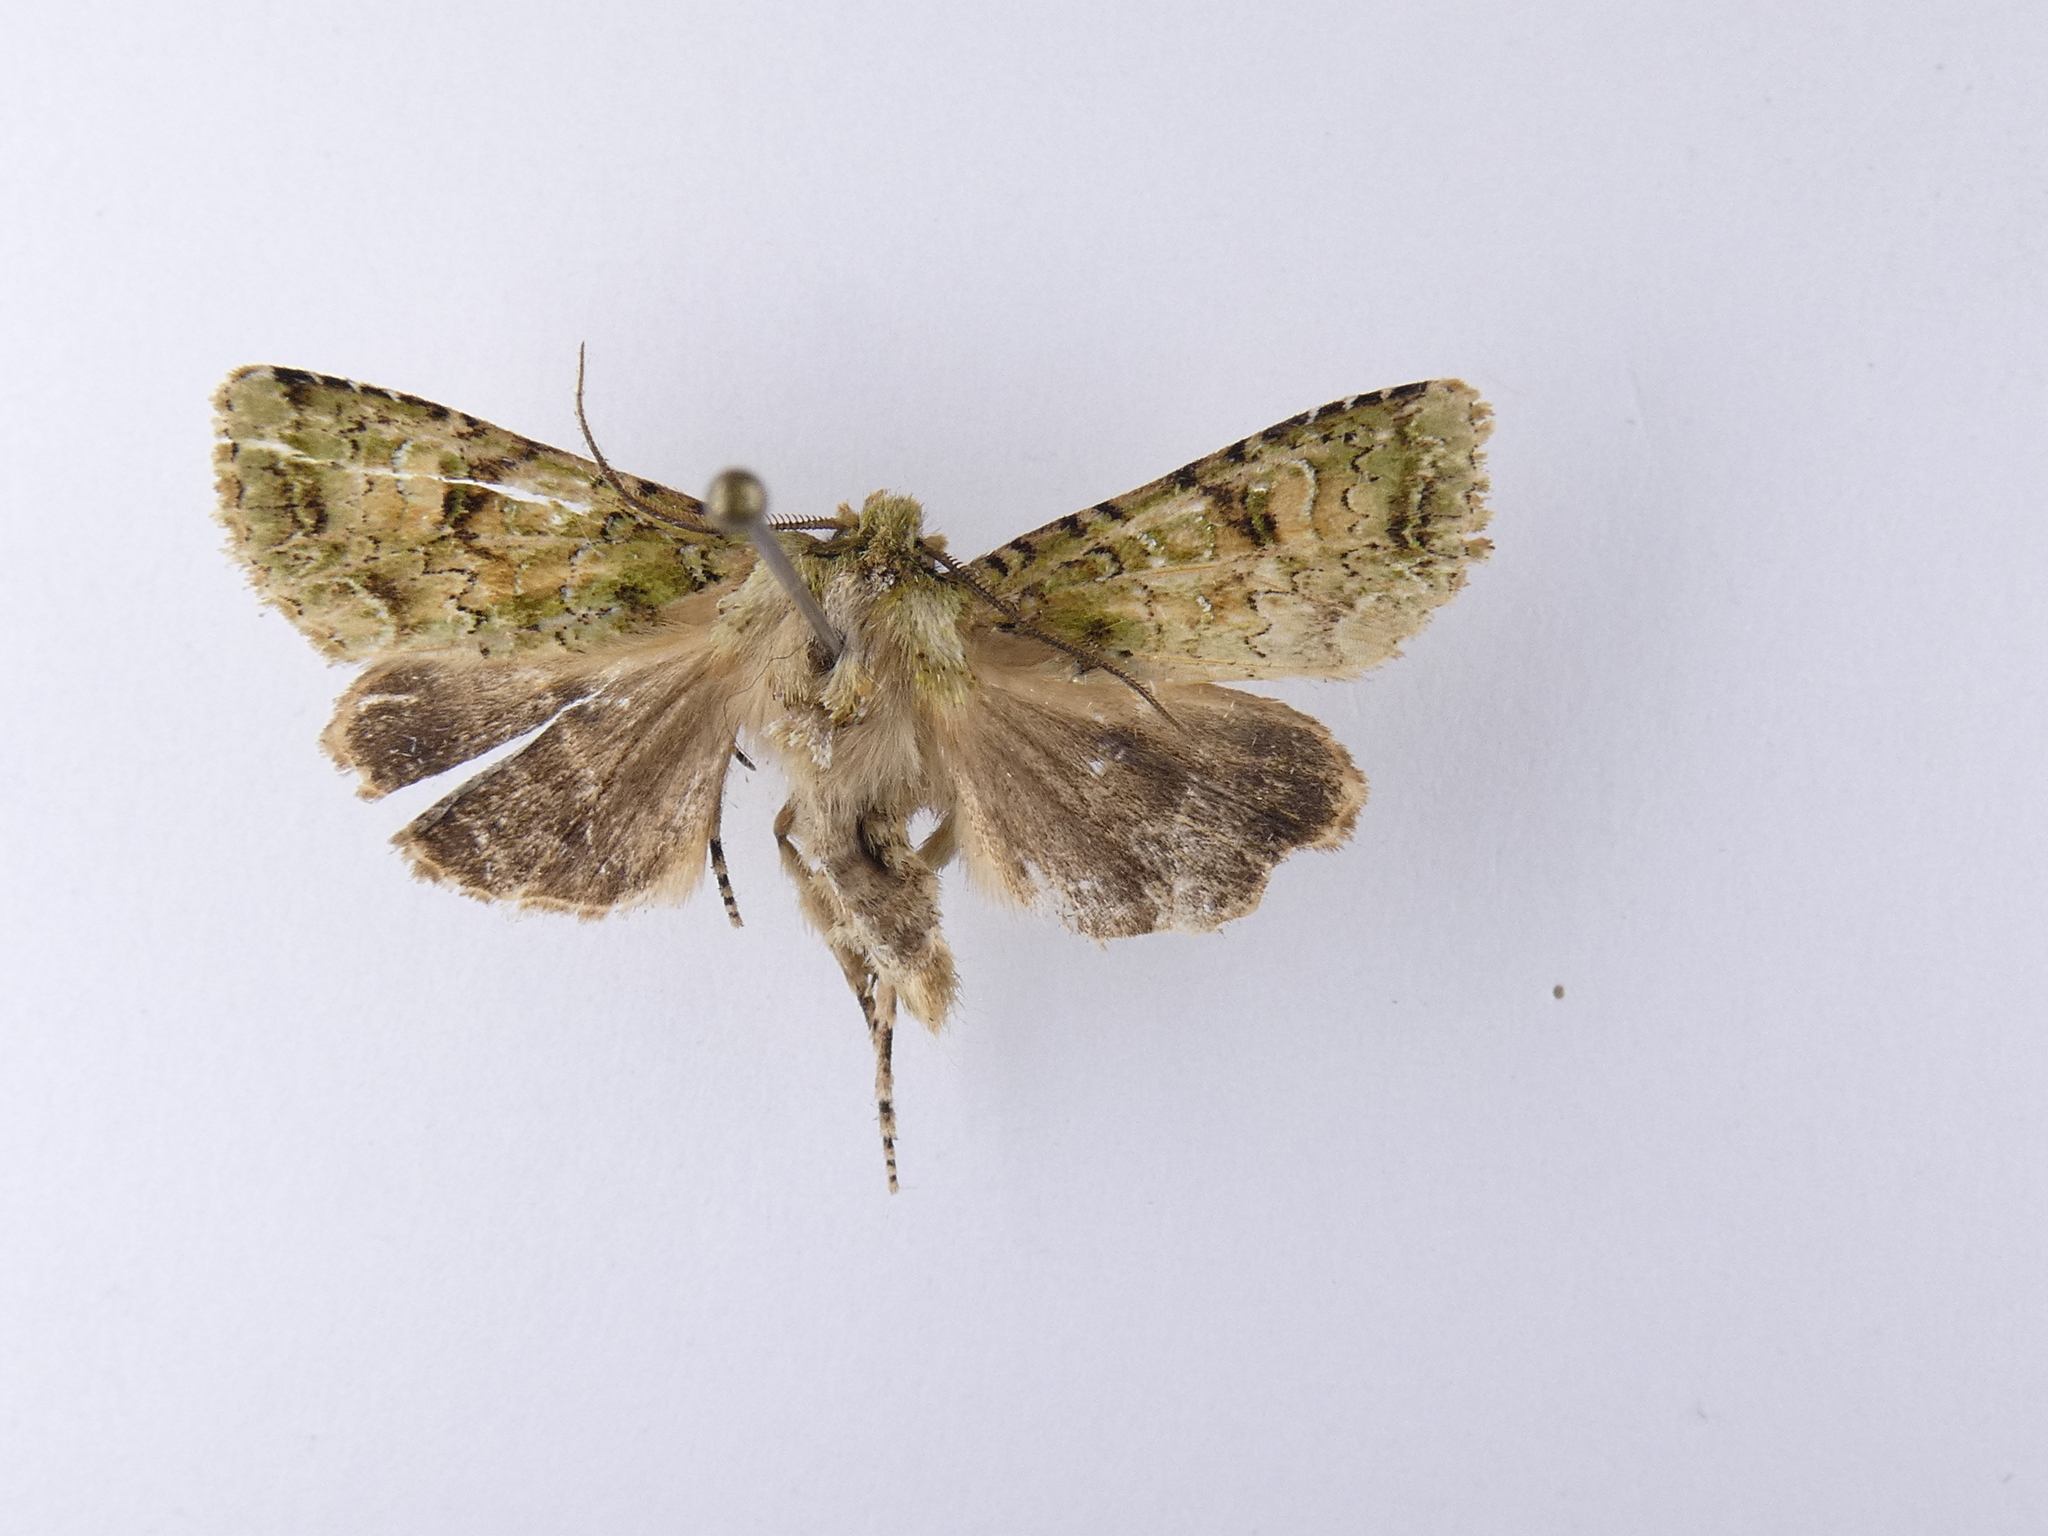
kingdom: Animalia
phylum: Arthropoda
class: Insecta
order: Lepidoptera
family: Noctuidae
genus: Ichneutica
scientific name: Ichneutica
